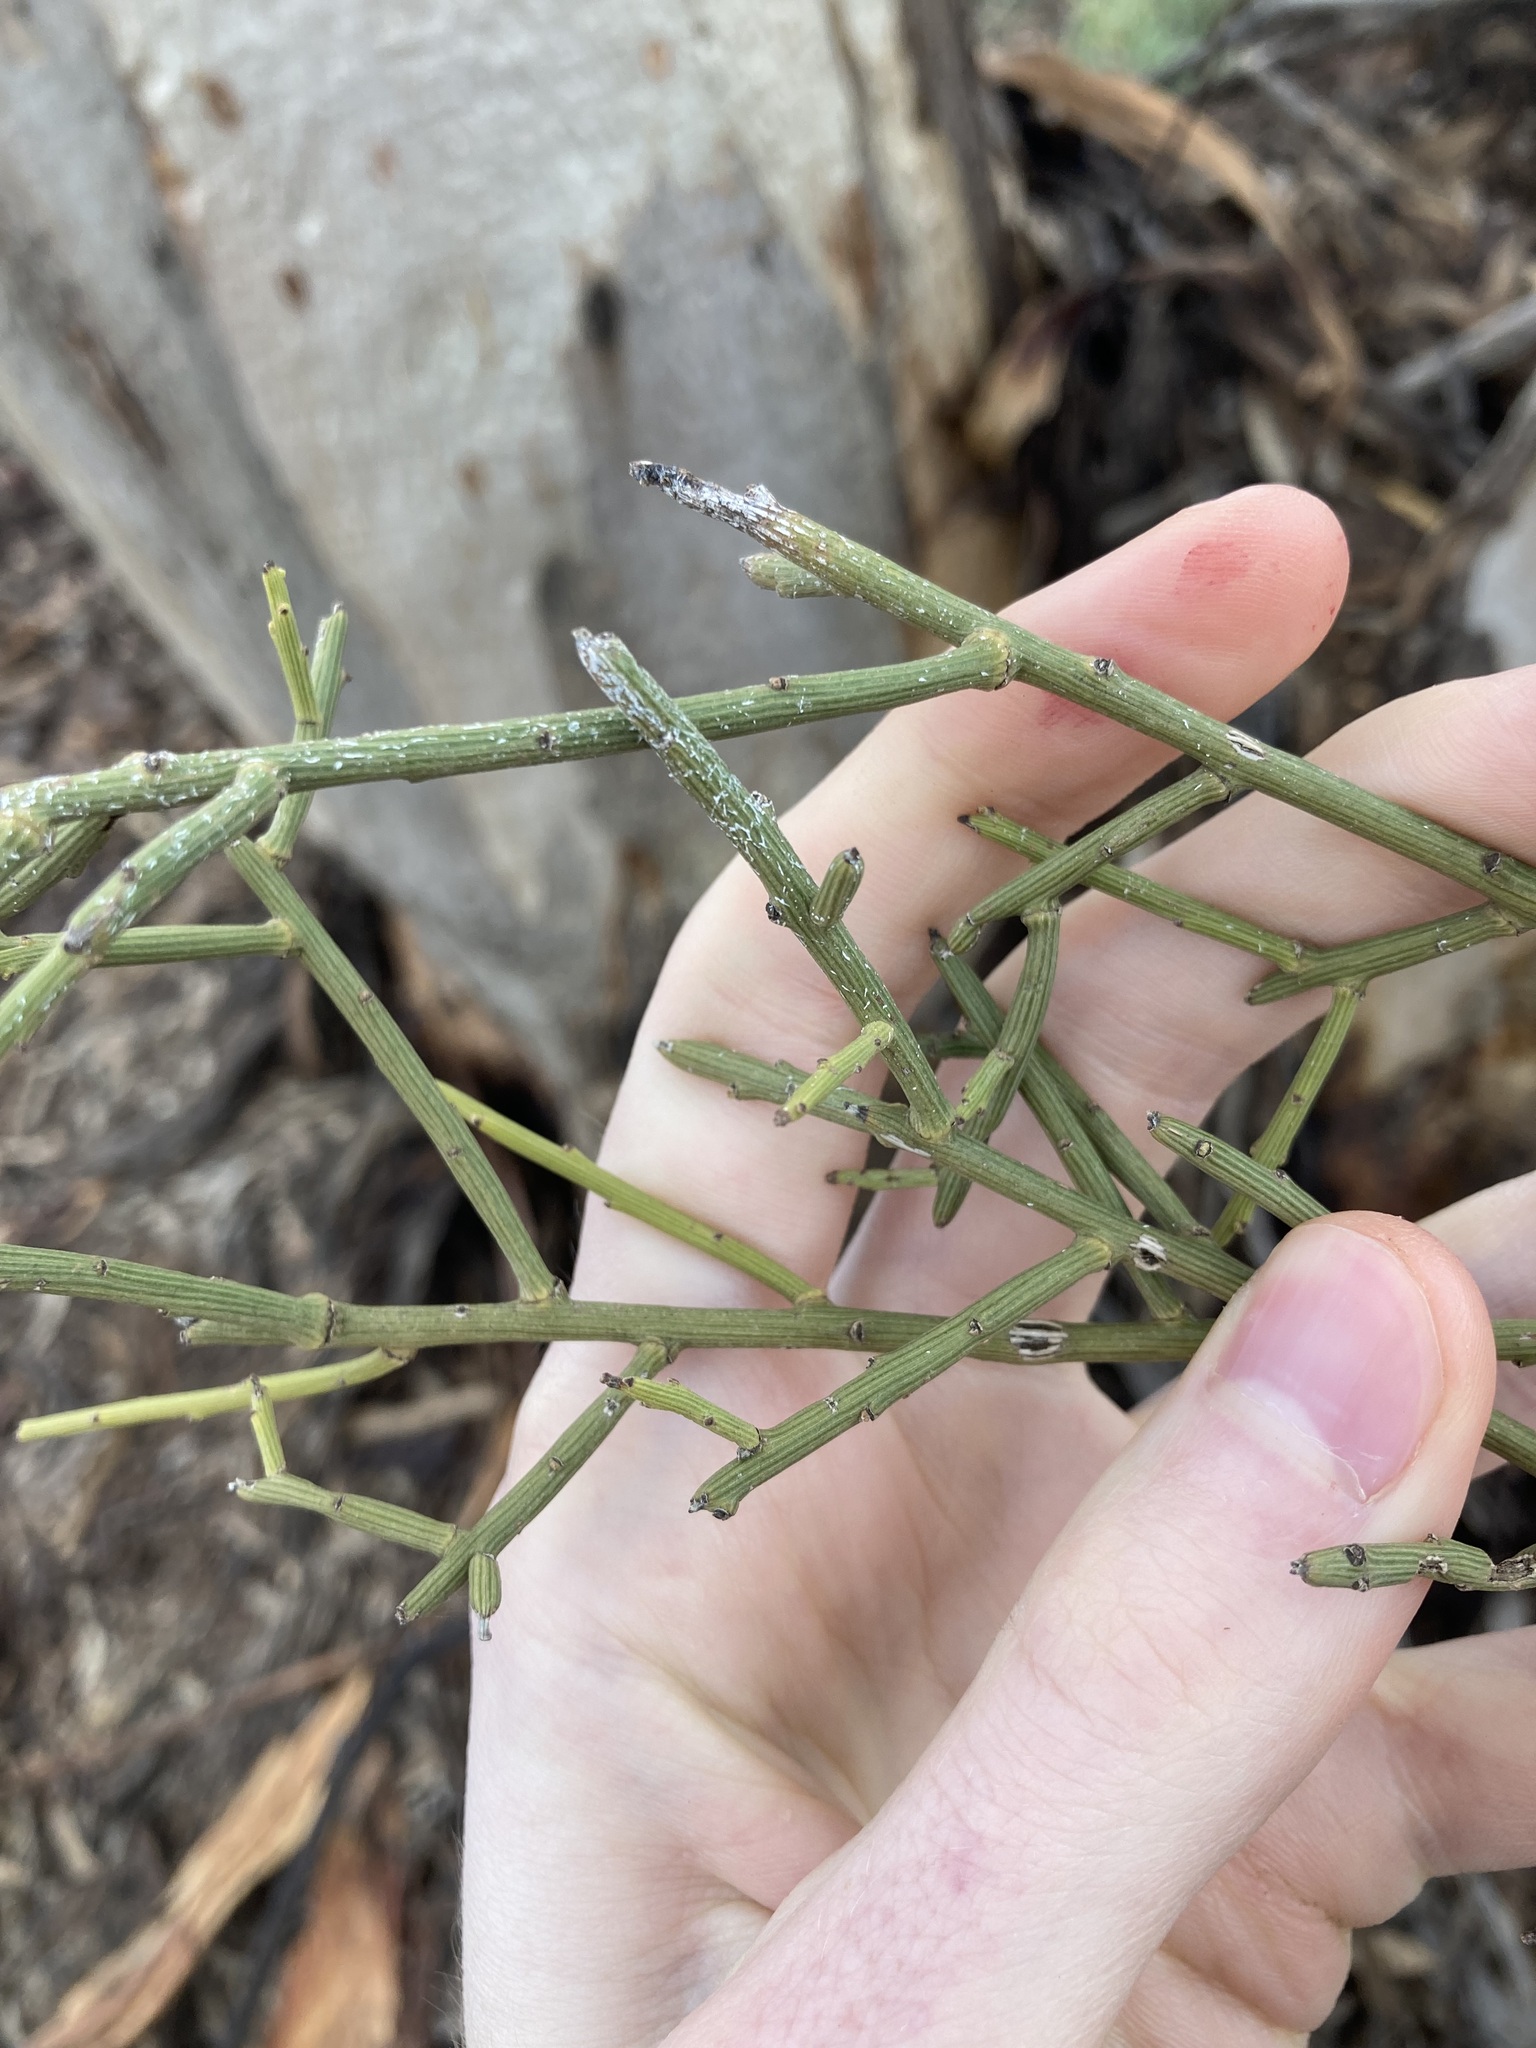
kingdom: Plantae
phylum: Tracheophyta
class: Magnoliopsida
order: Santalales
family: Santalaceae
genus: Exocarpos
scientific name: Exocarpos aphyllus
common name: Leafless ballart
